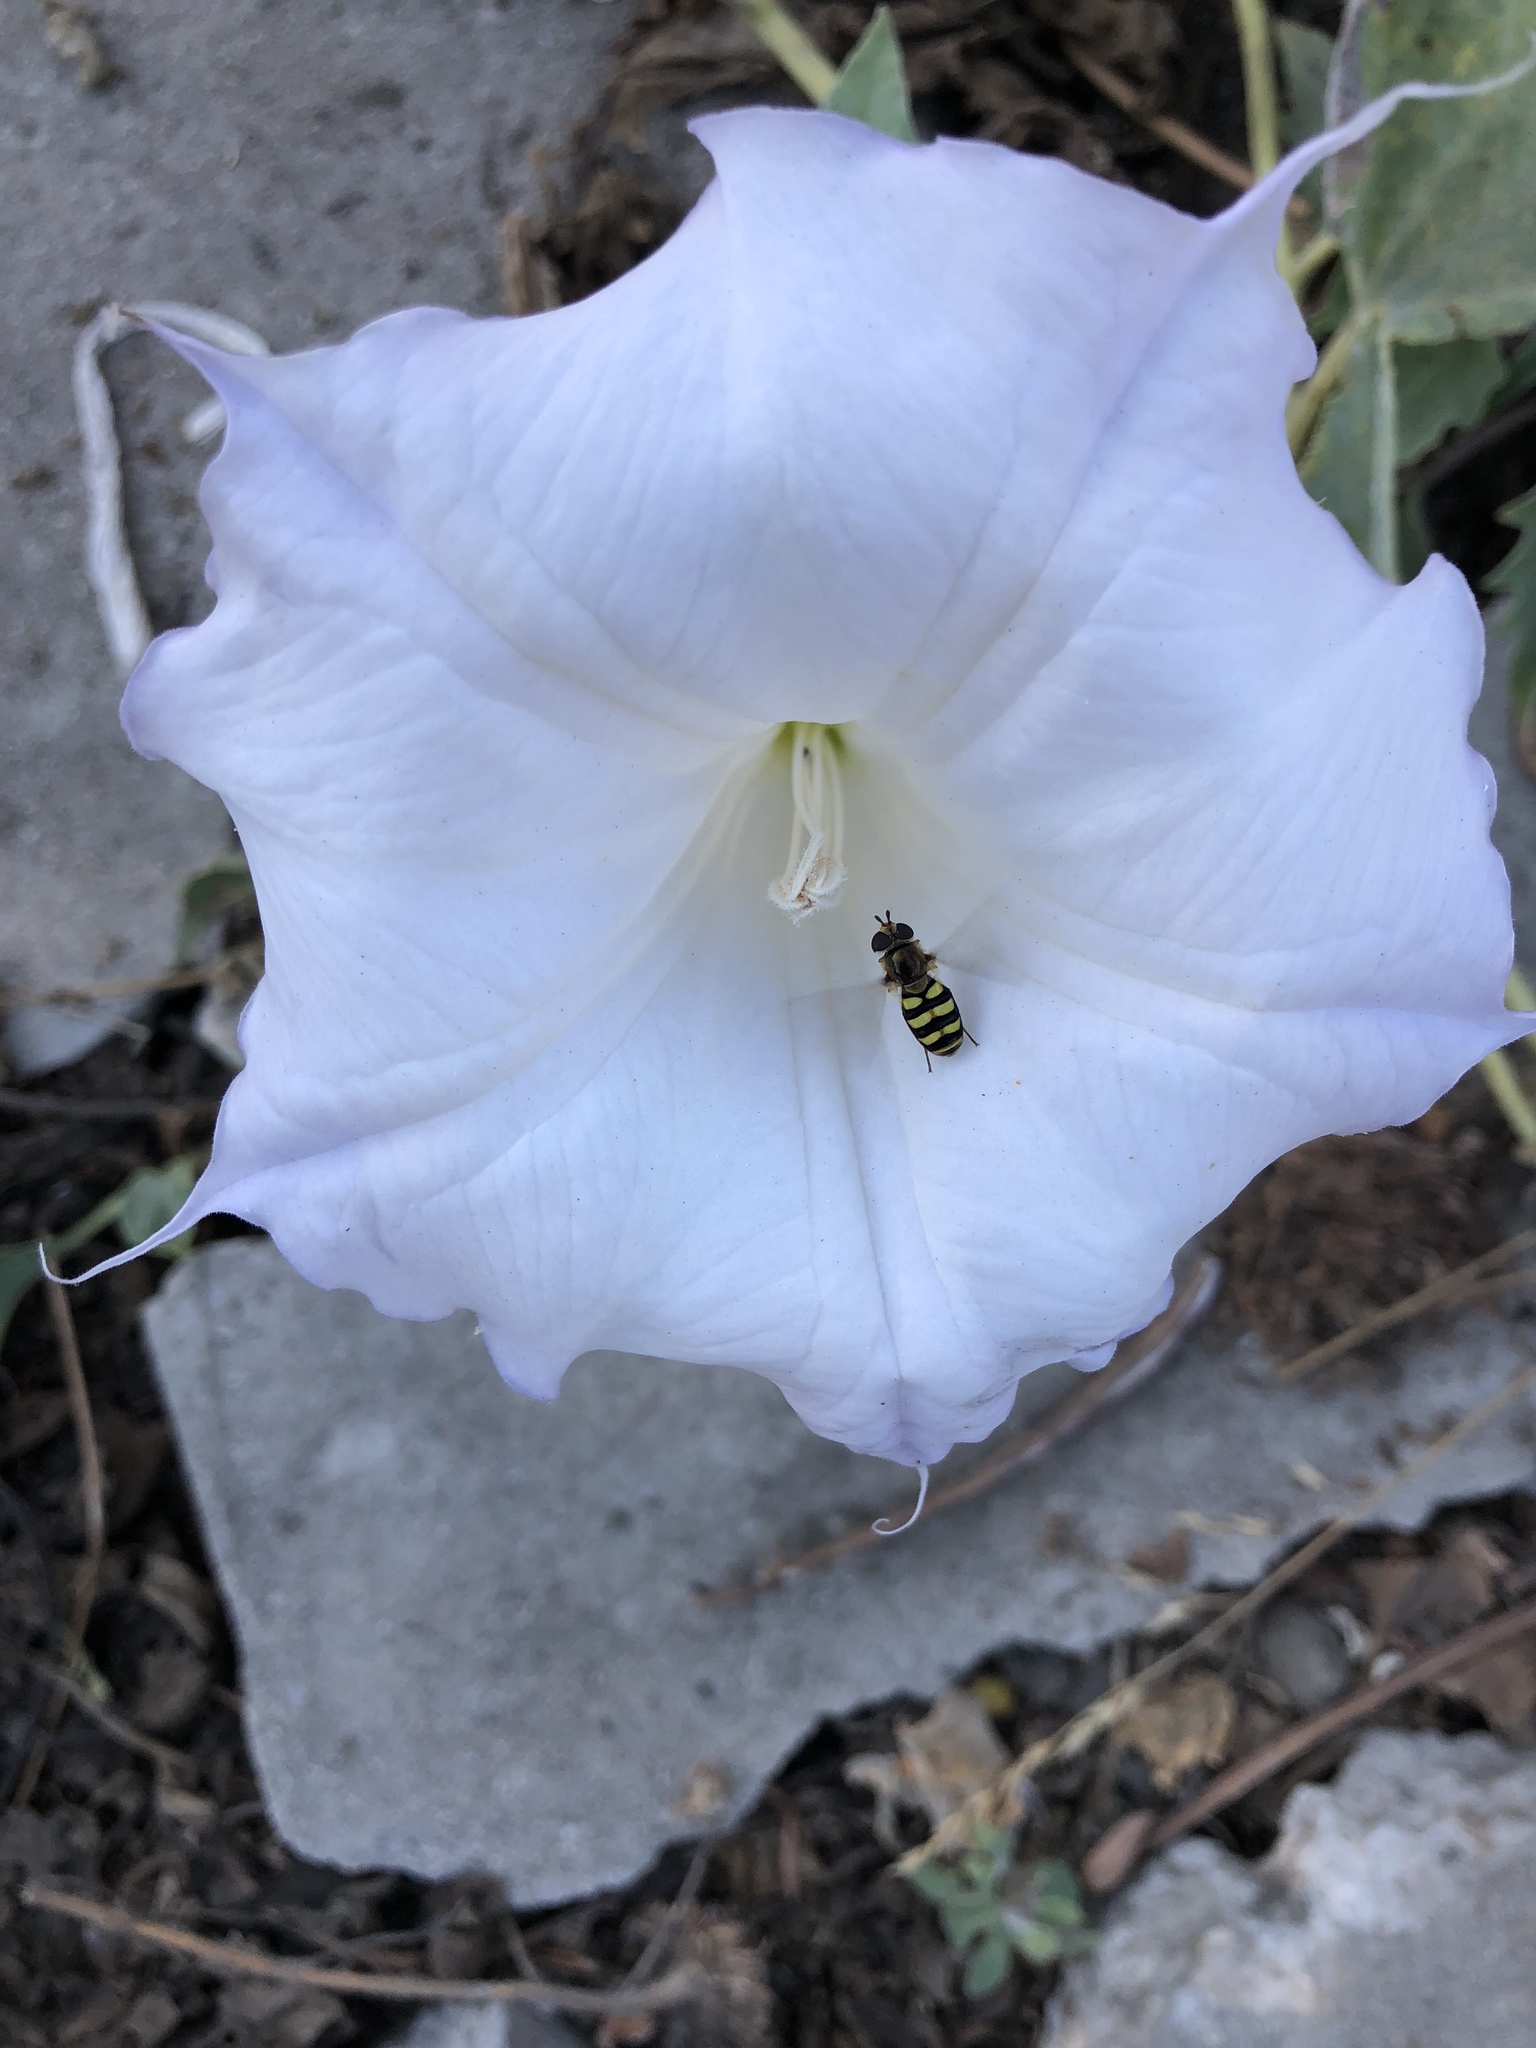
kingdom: Animalia
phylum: Arthropoda
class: Insecta
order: Diptera
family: Syrphidae
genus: Eupeodes
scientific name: Eupeodes fumipennis
